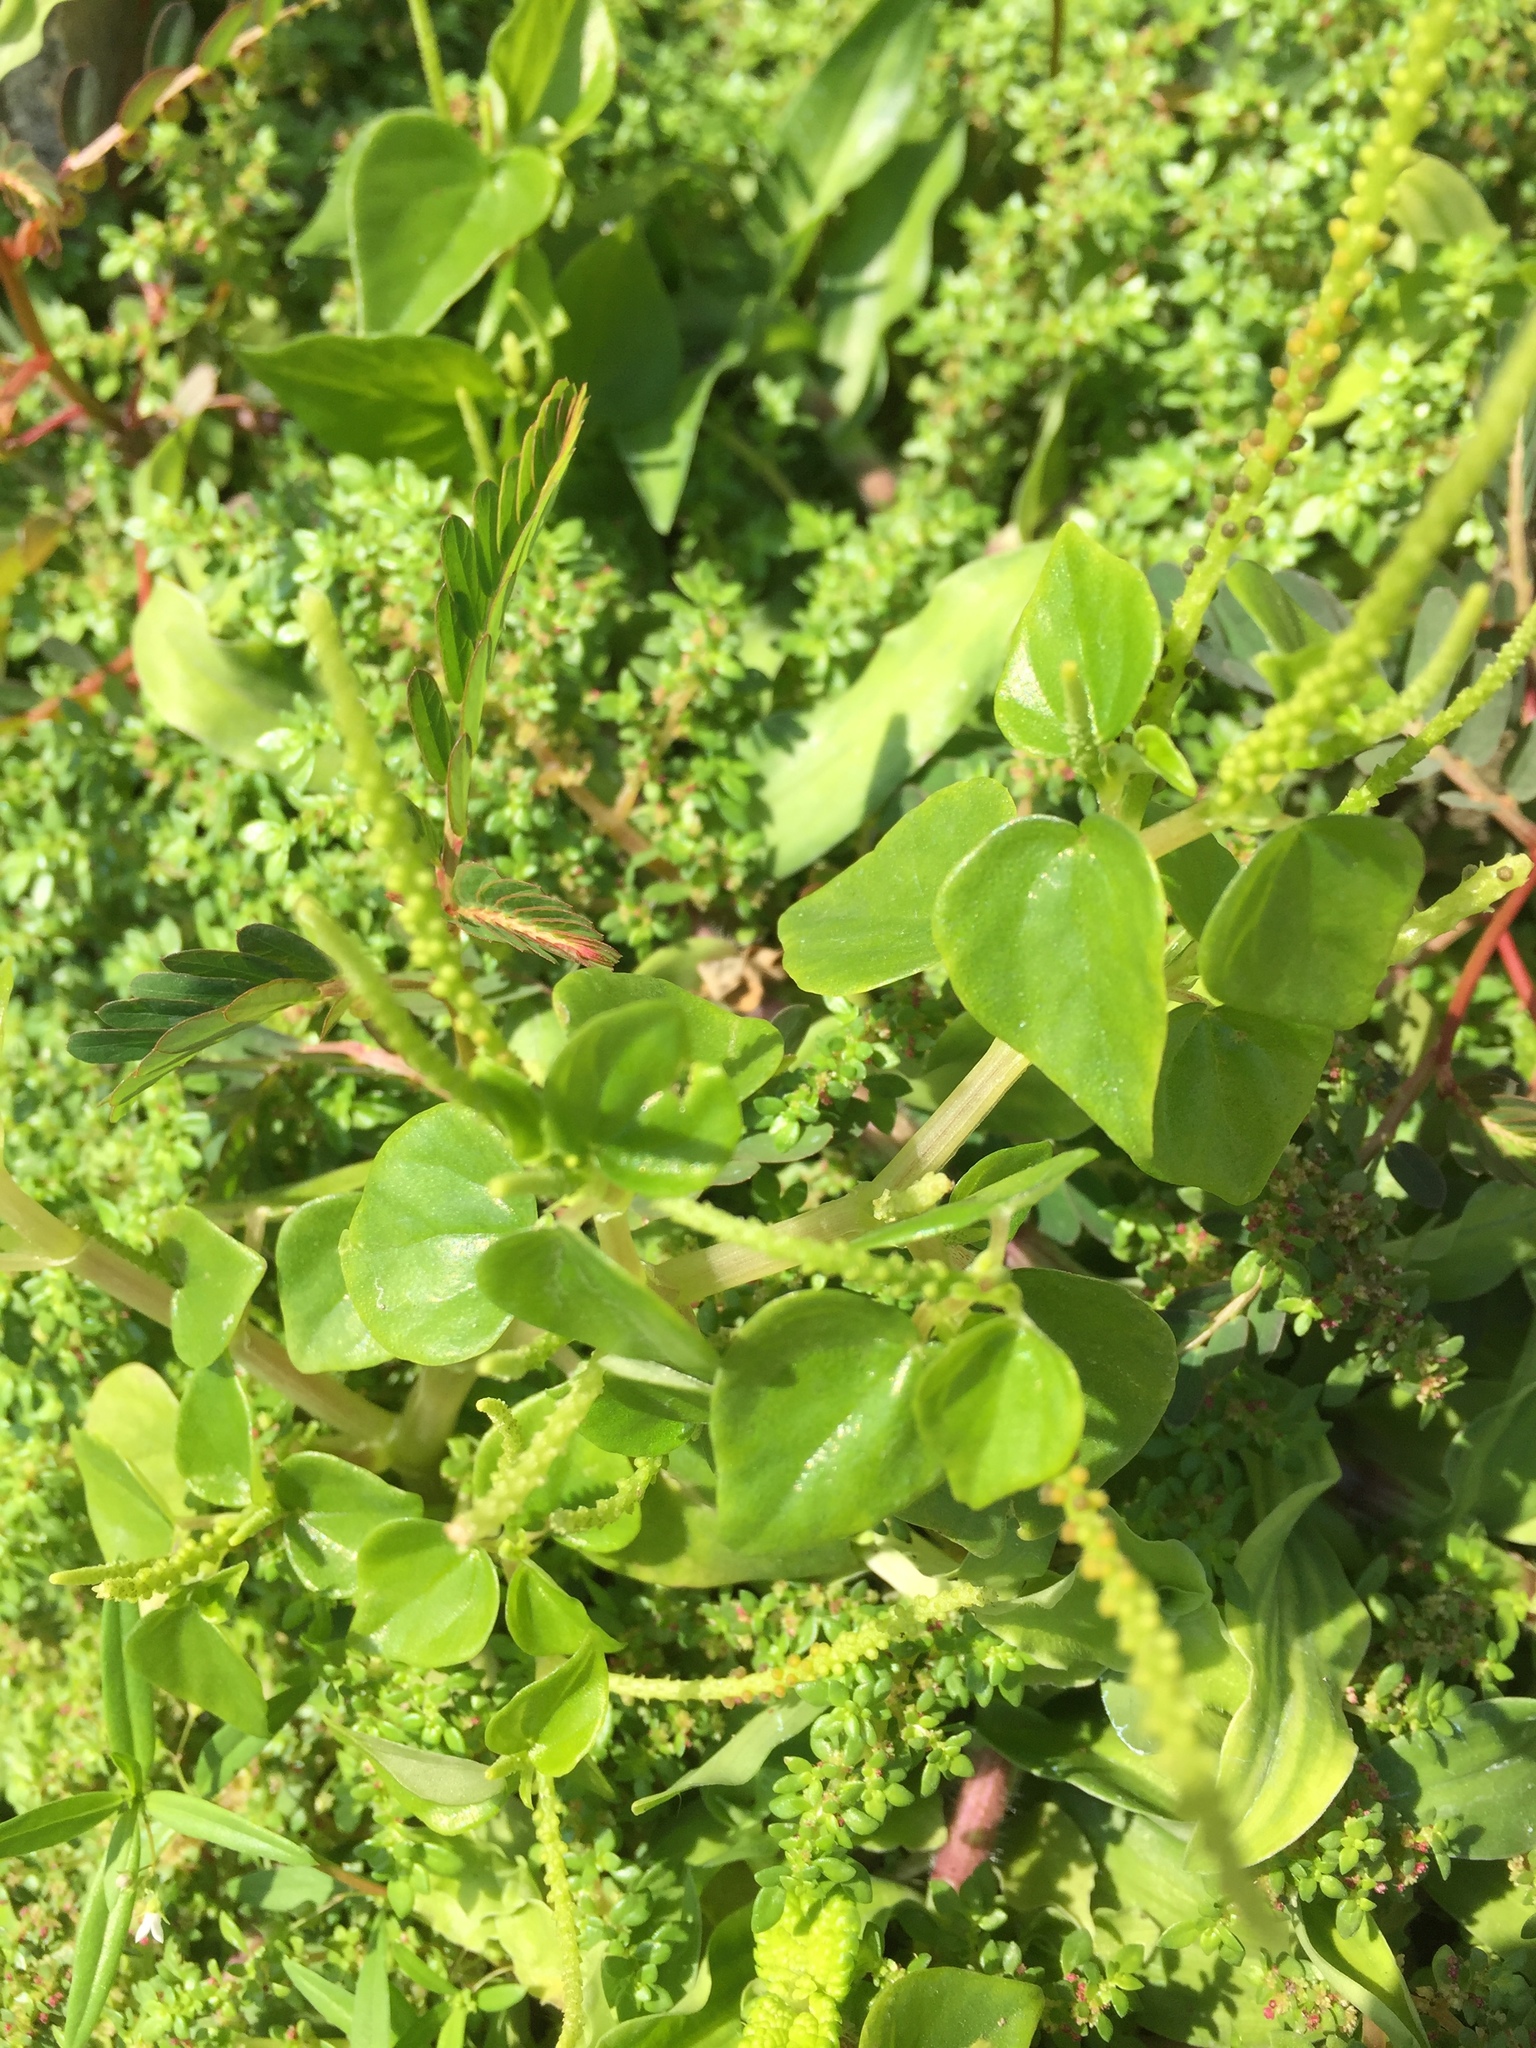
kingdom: Plantae
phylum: Tracheophyta
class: Magnoliopsida
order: Piperales
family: Piperaceae
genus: Peperomia
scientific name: Peperomia pellucida
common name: Man to man
